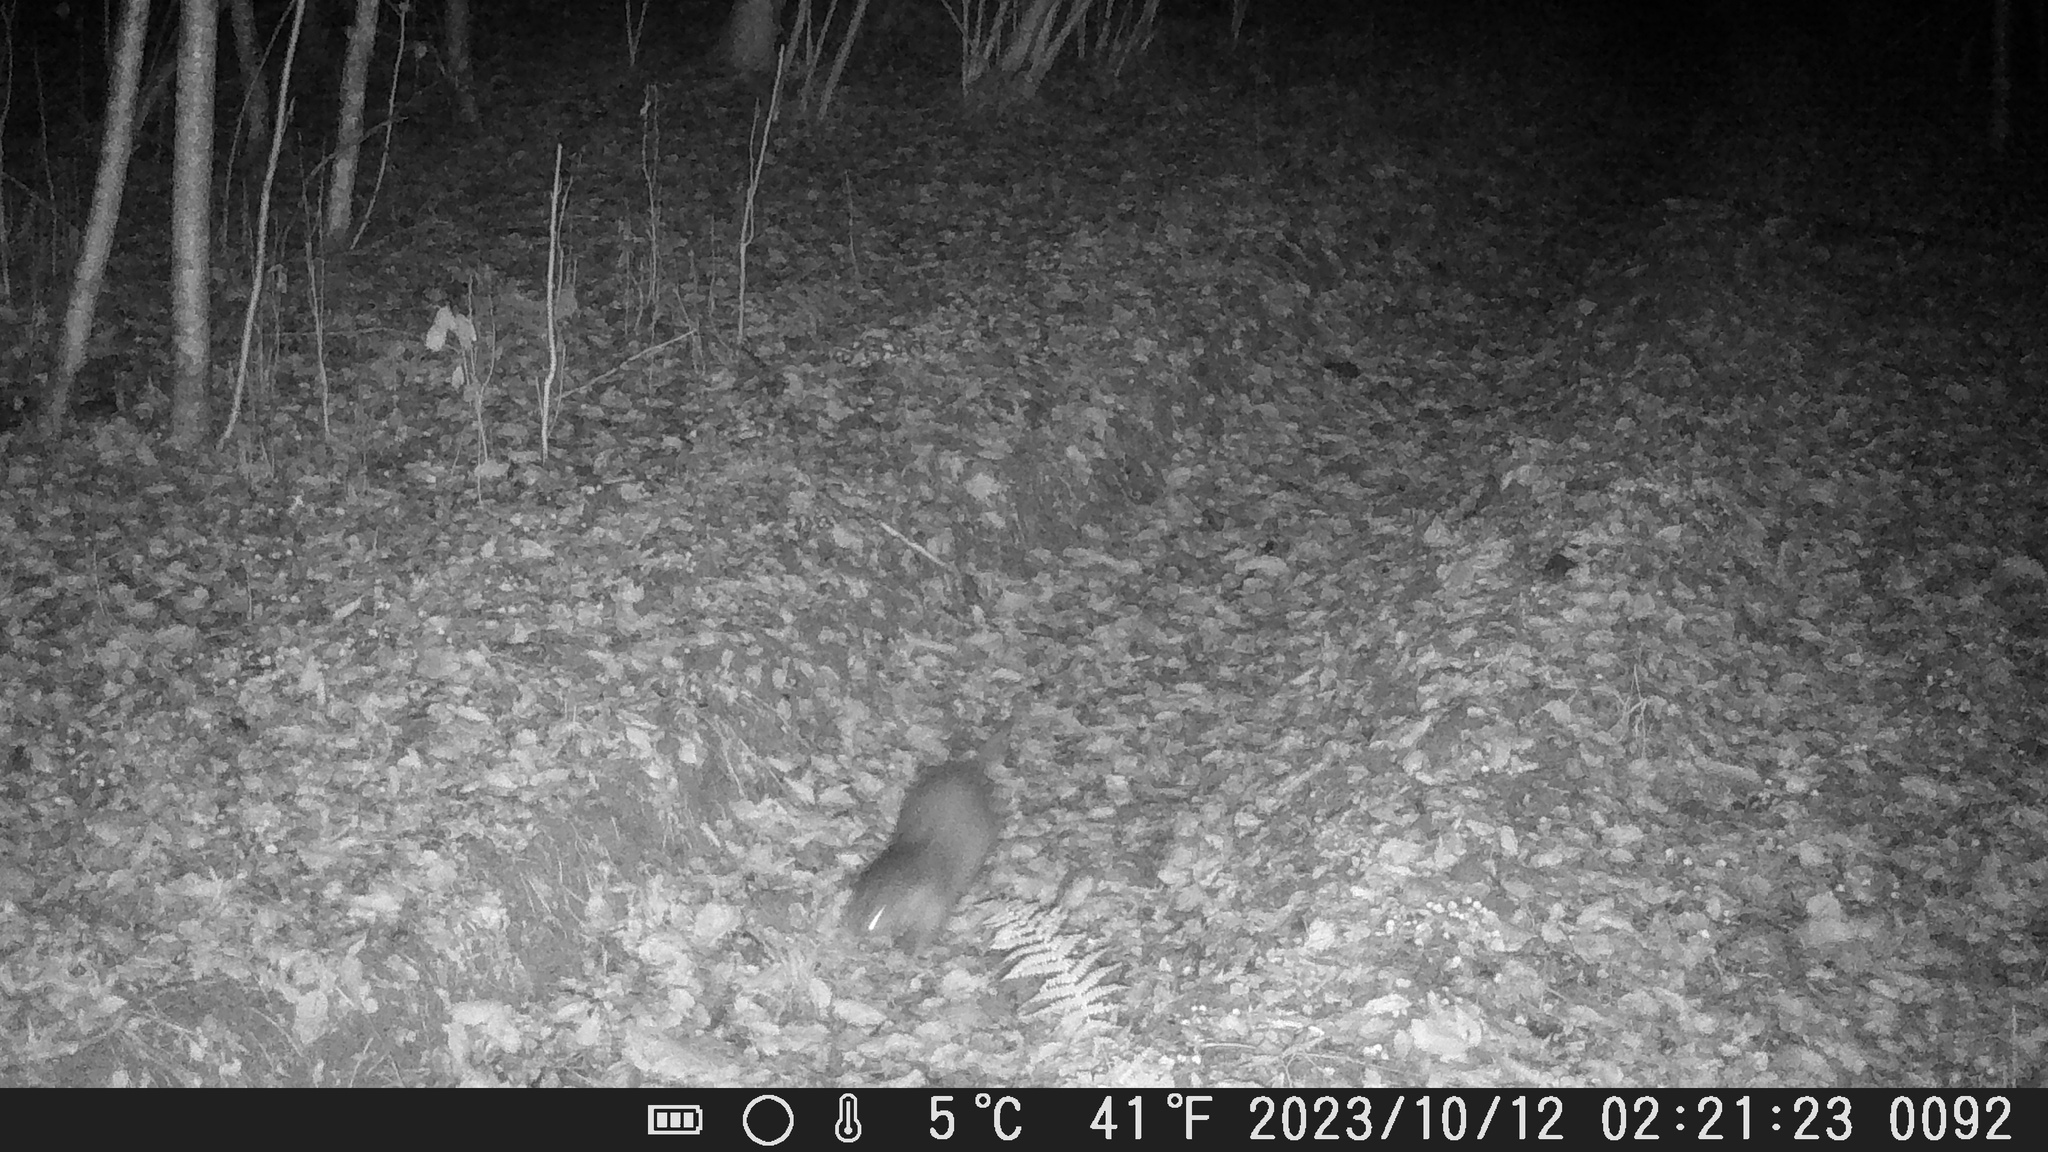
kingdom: Animalia
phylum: Chordata
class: Mammalia
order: Carnivora
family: Mustelidae
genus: Lutra
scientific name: Lutra lutra
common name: European otter
